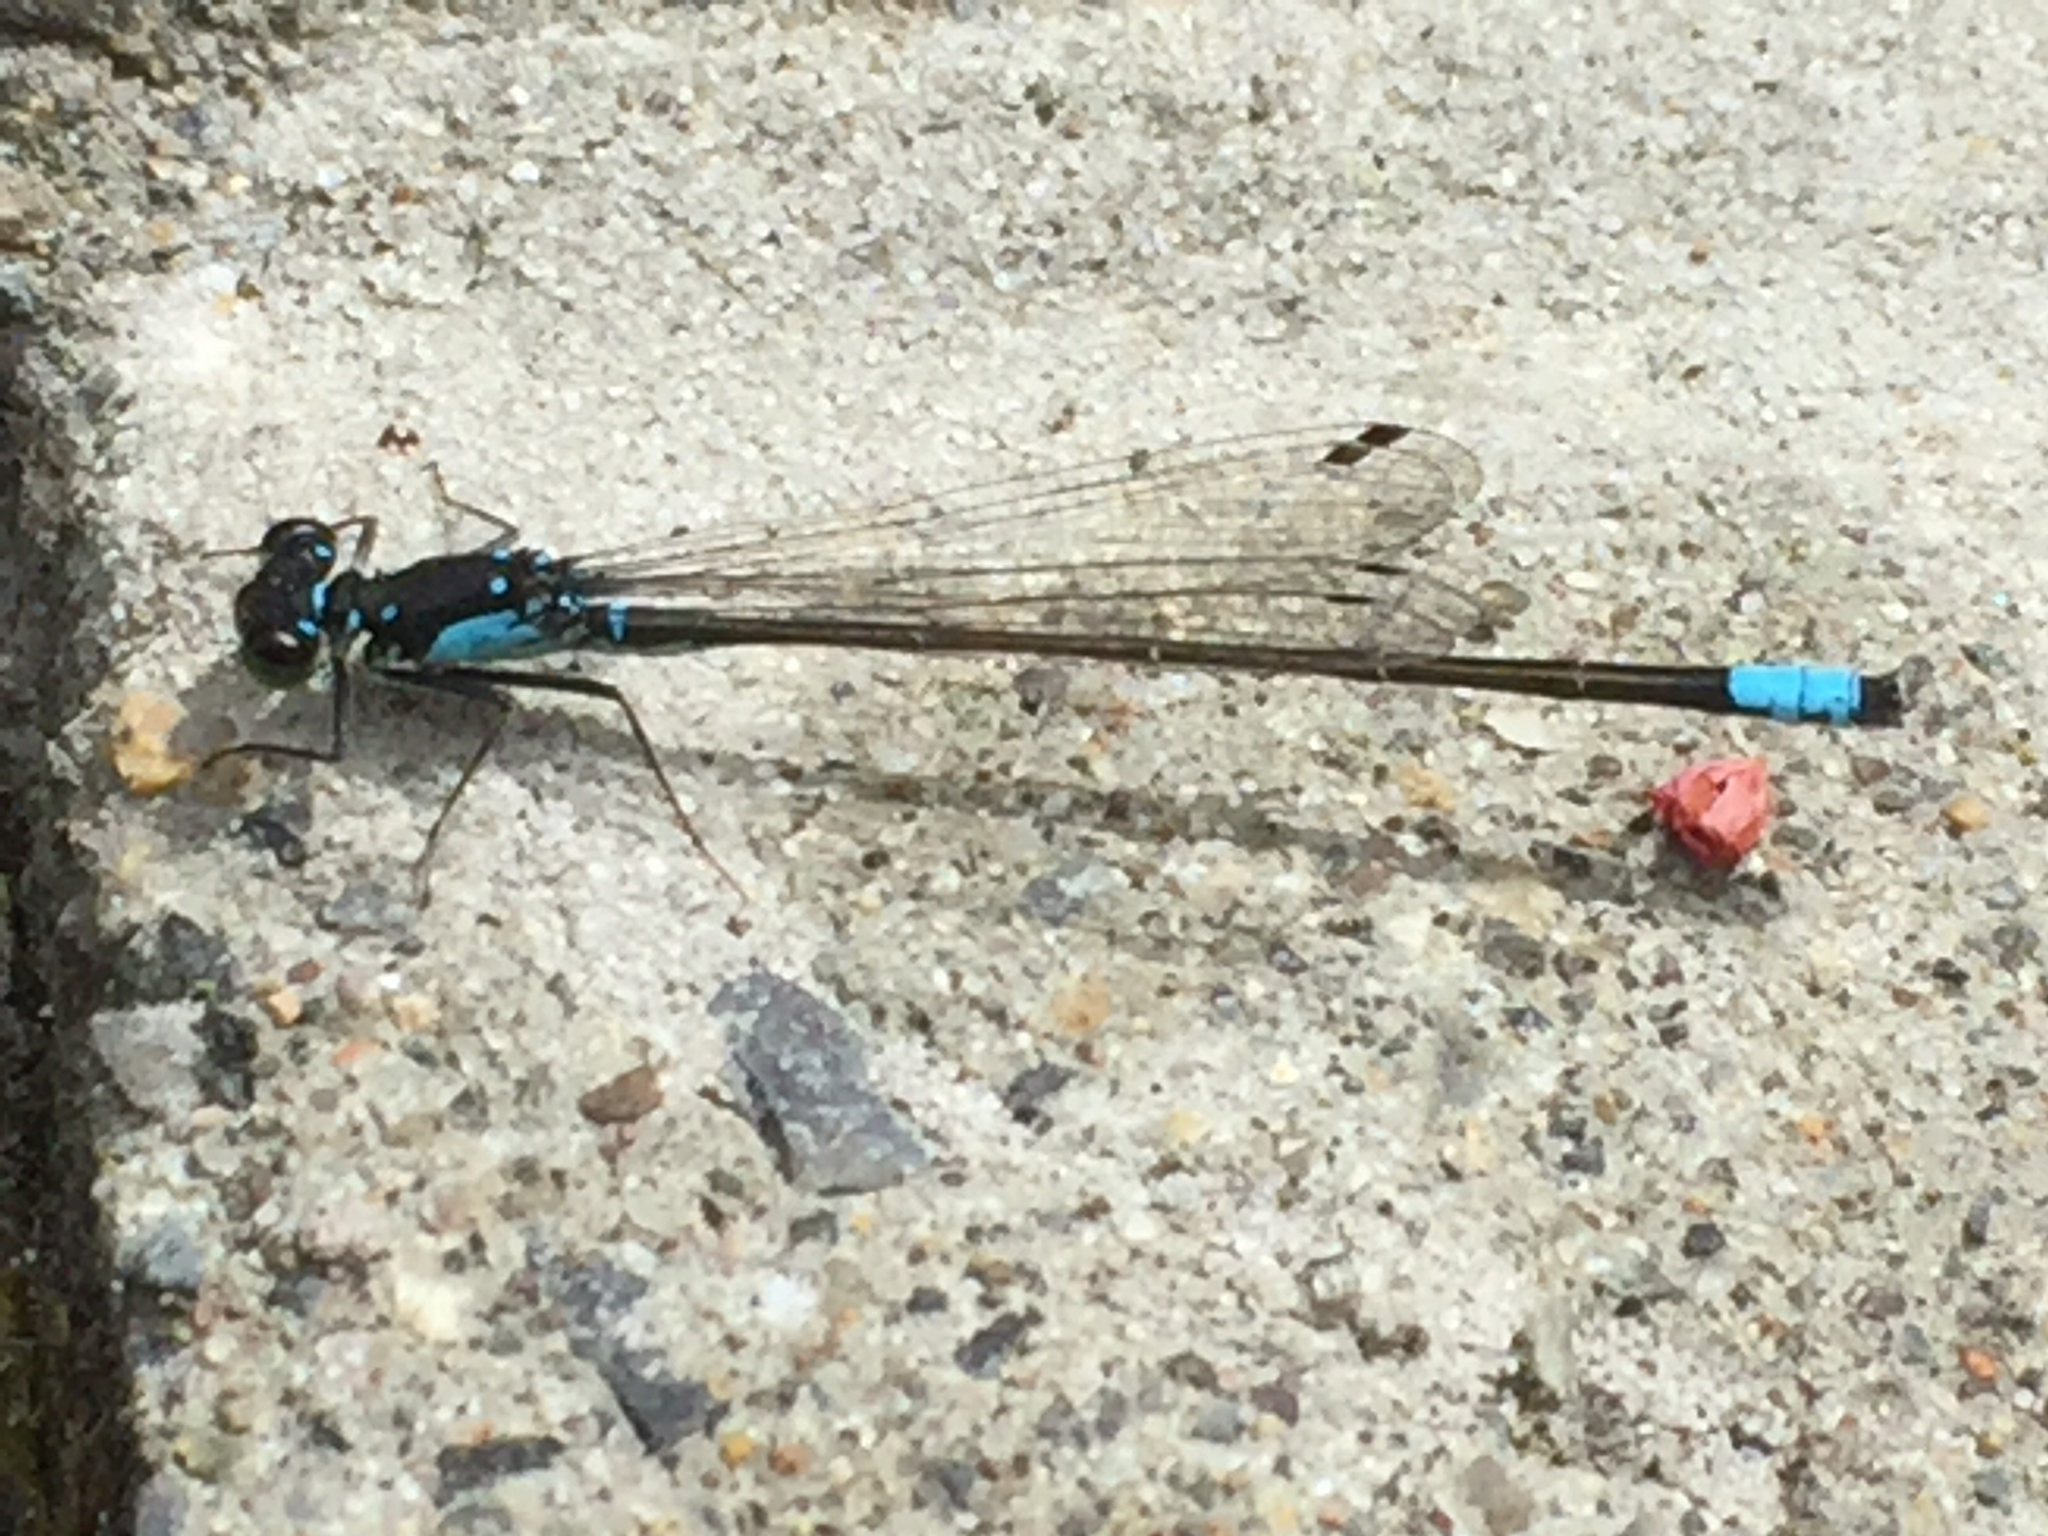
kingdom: Animalia
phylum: Arthropoda
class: Insecta
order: Odonata
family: Coenagrionidae
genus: Ischnura
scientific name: Ischnura cervula
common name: Pacific forktail
